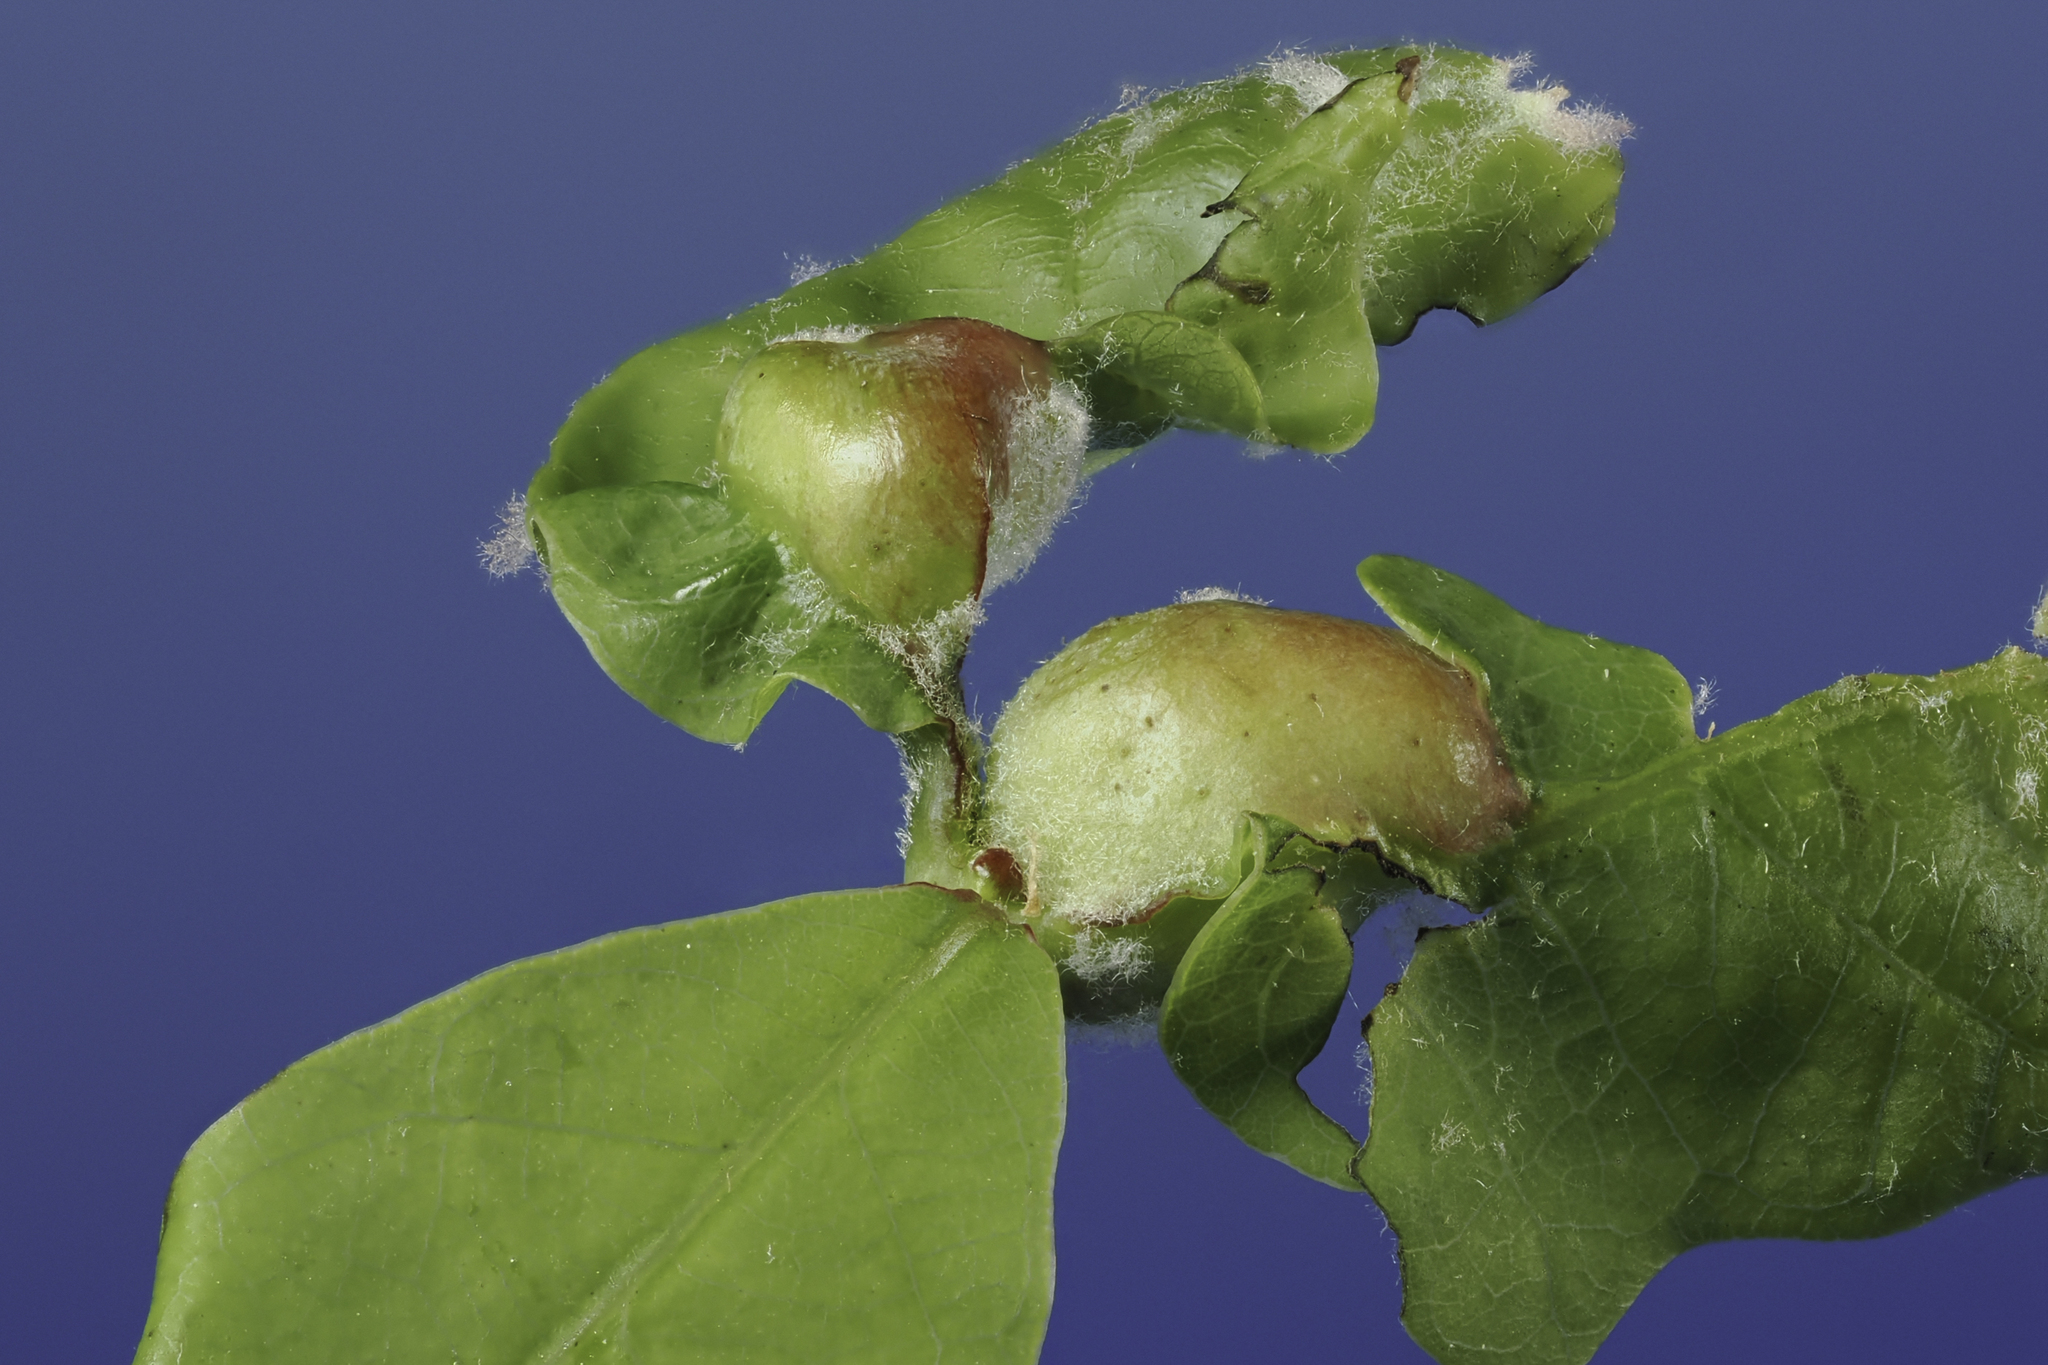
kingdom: Animalia
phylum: Arthropoda
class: Insecta
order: Hymenoptera
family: Cynipidae
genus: Andricus
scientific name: Andricus
